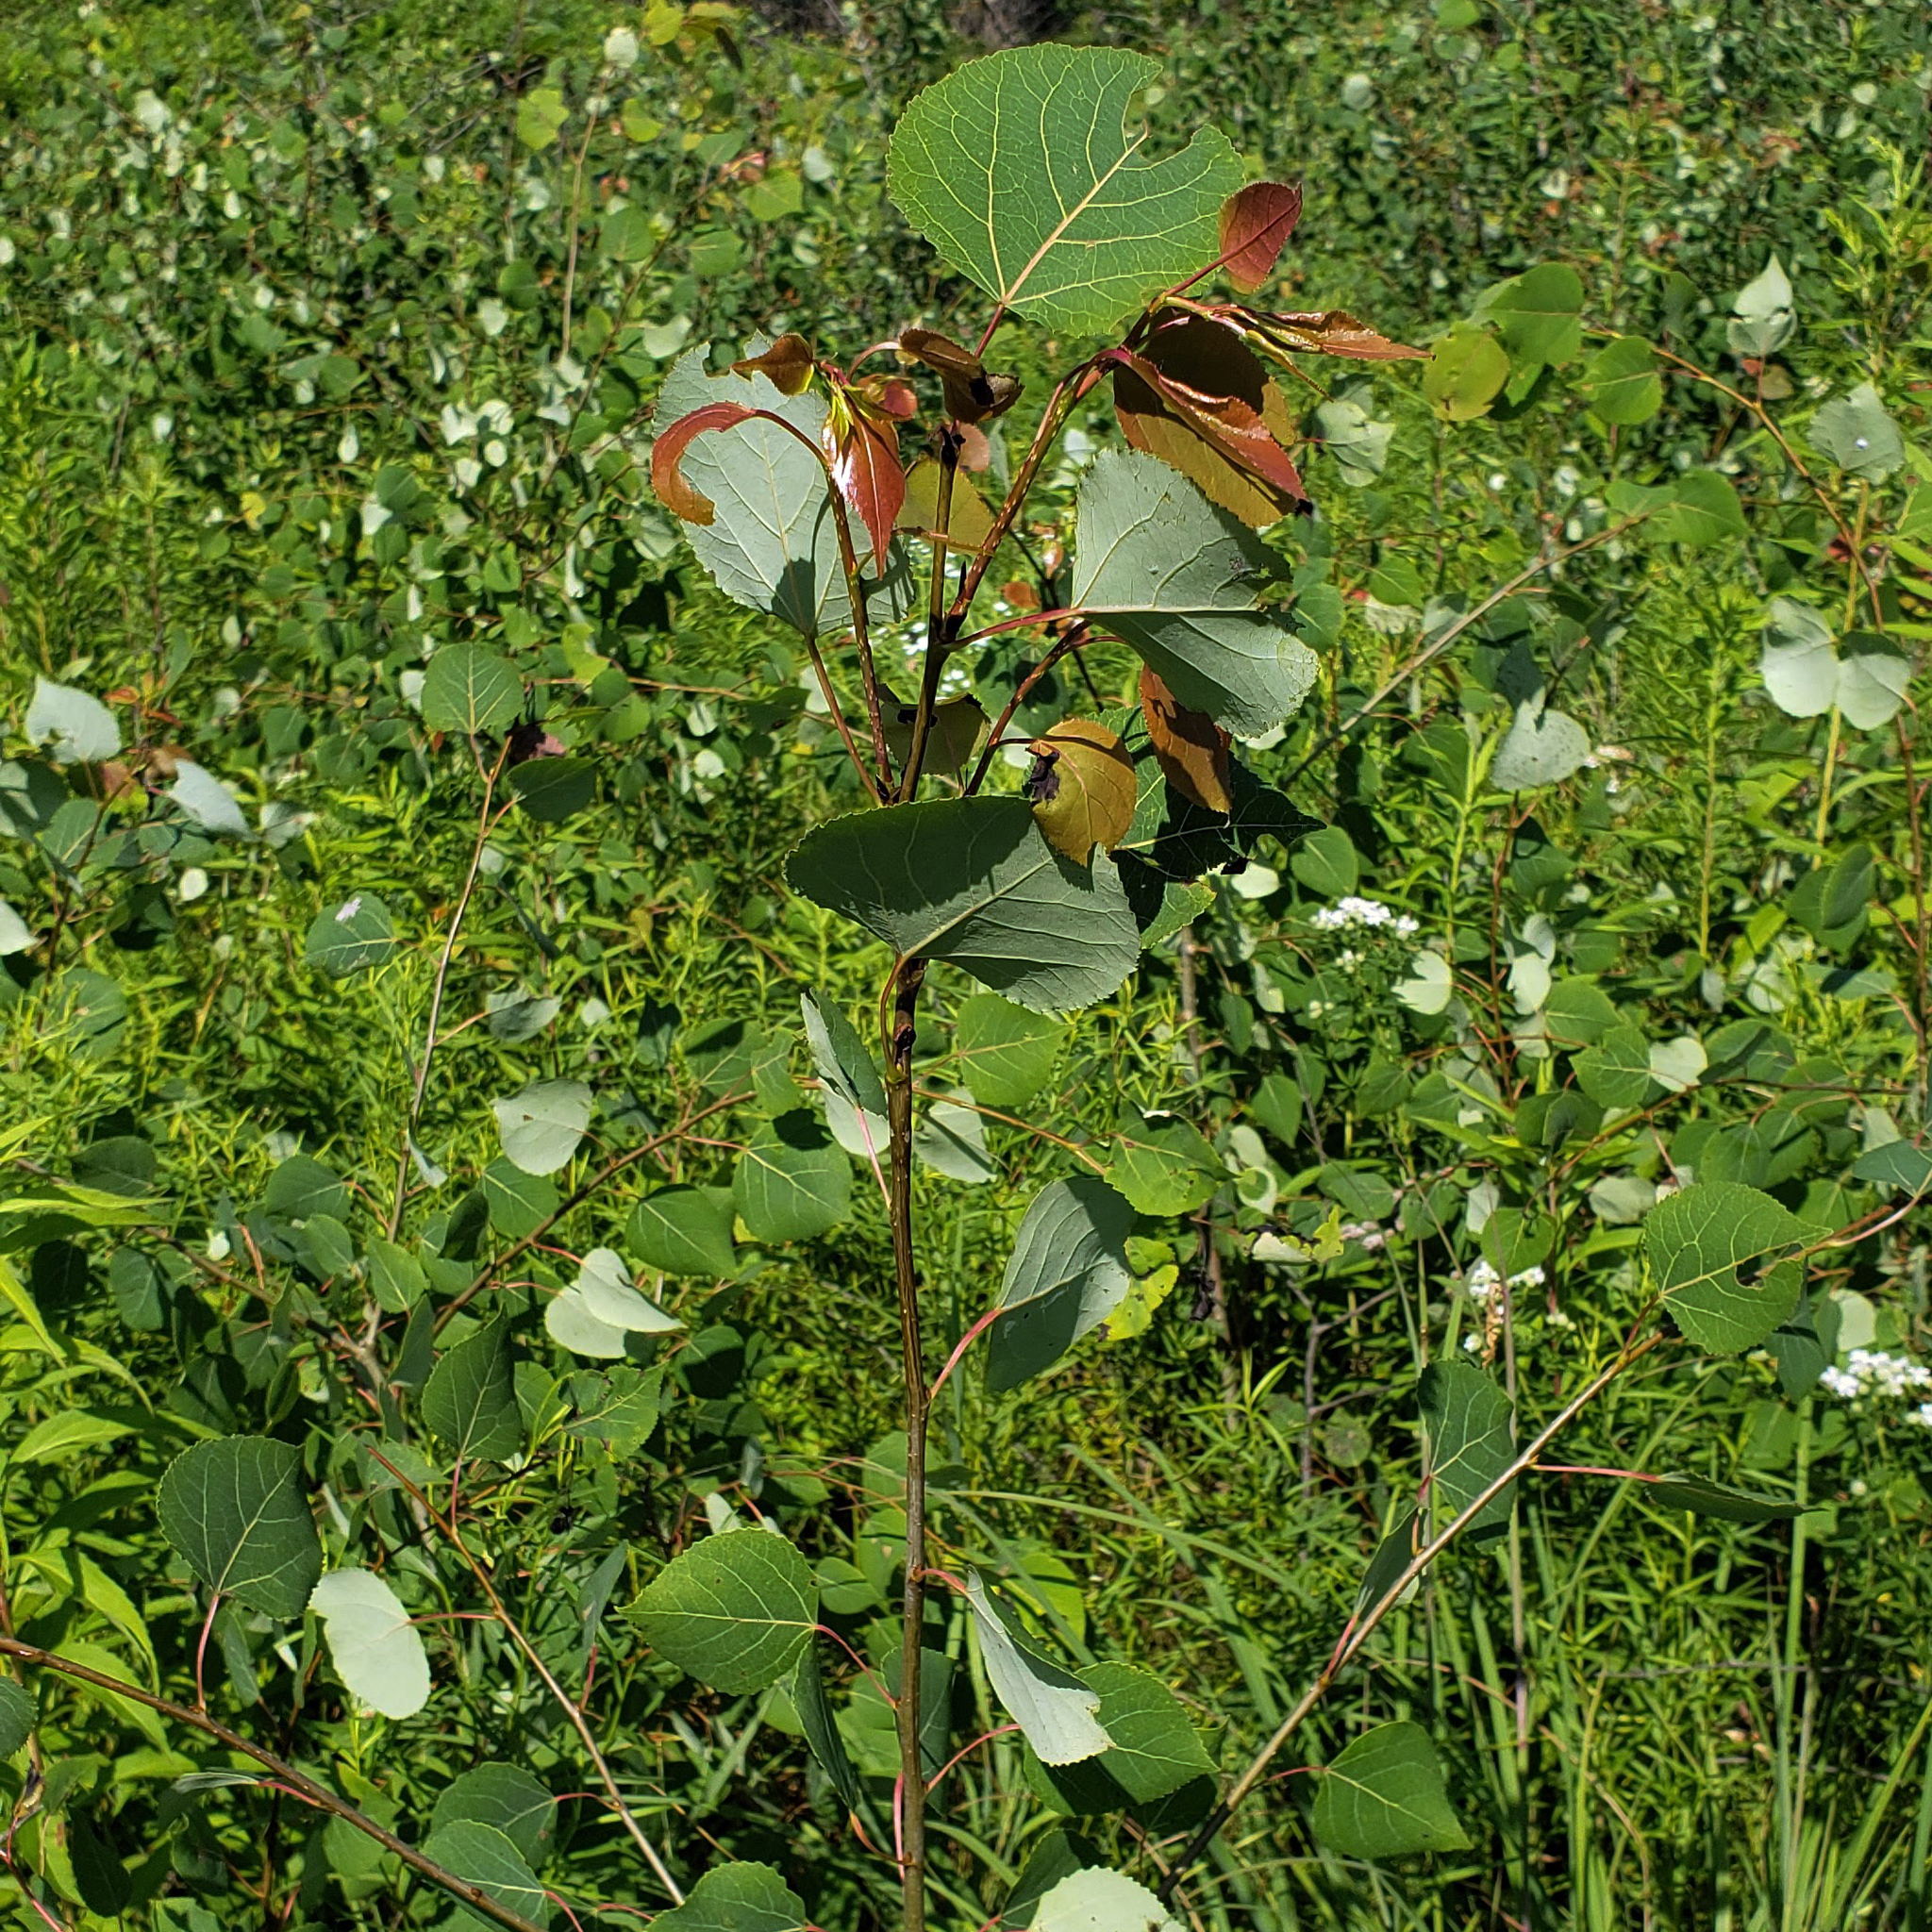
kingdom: Plantae
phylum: Tracheophyta
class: Magnoliopsida
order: Malpighiales
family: Salicaceae
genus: Populus
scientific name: Populus tremuloides
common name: Quaking aspen
